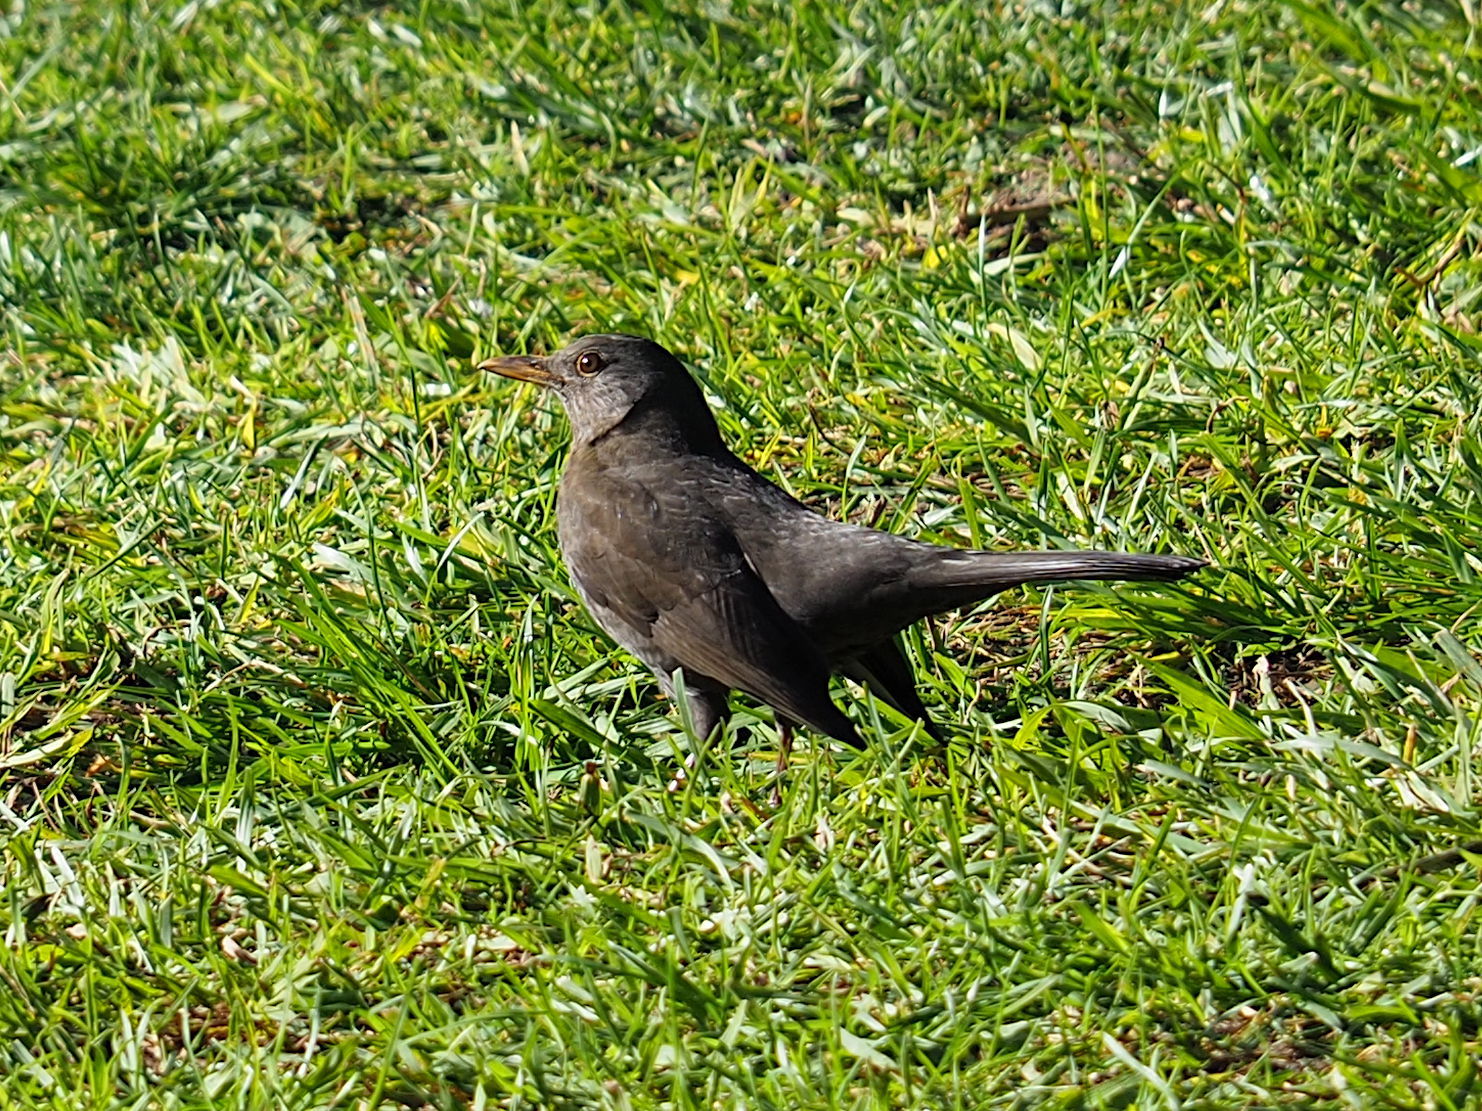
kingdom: Animalia
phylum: Chordata
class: Aves
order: Passeriformes
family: Turdidae
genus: Turdus
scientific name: Turdus merula
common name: Common blackbird
